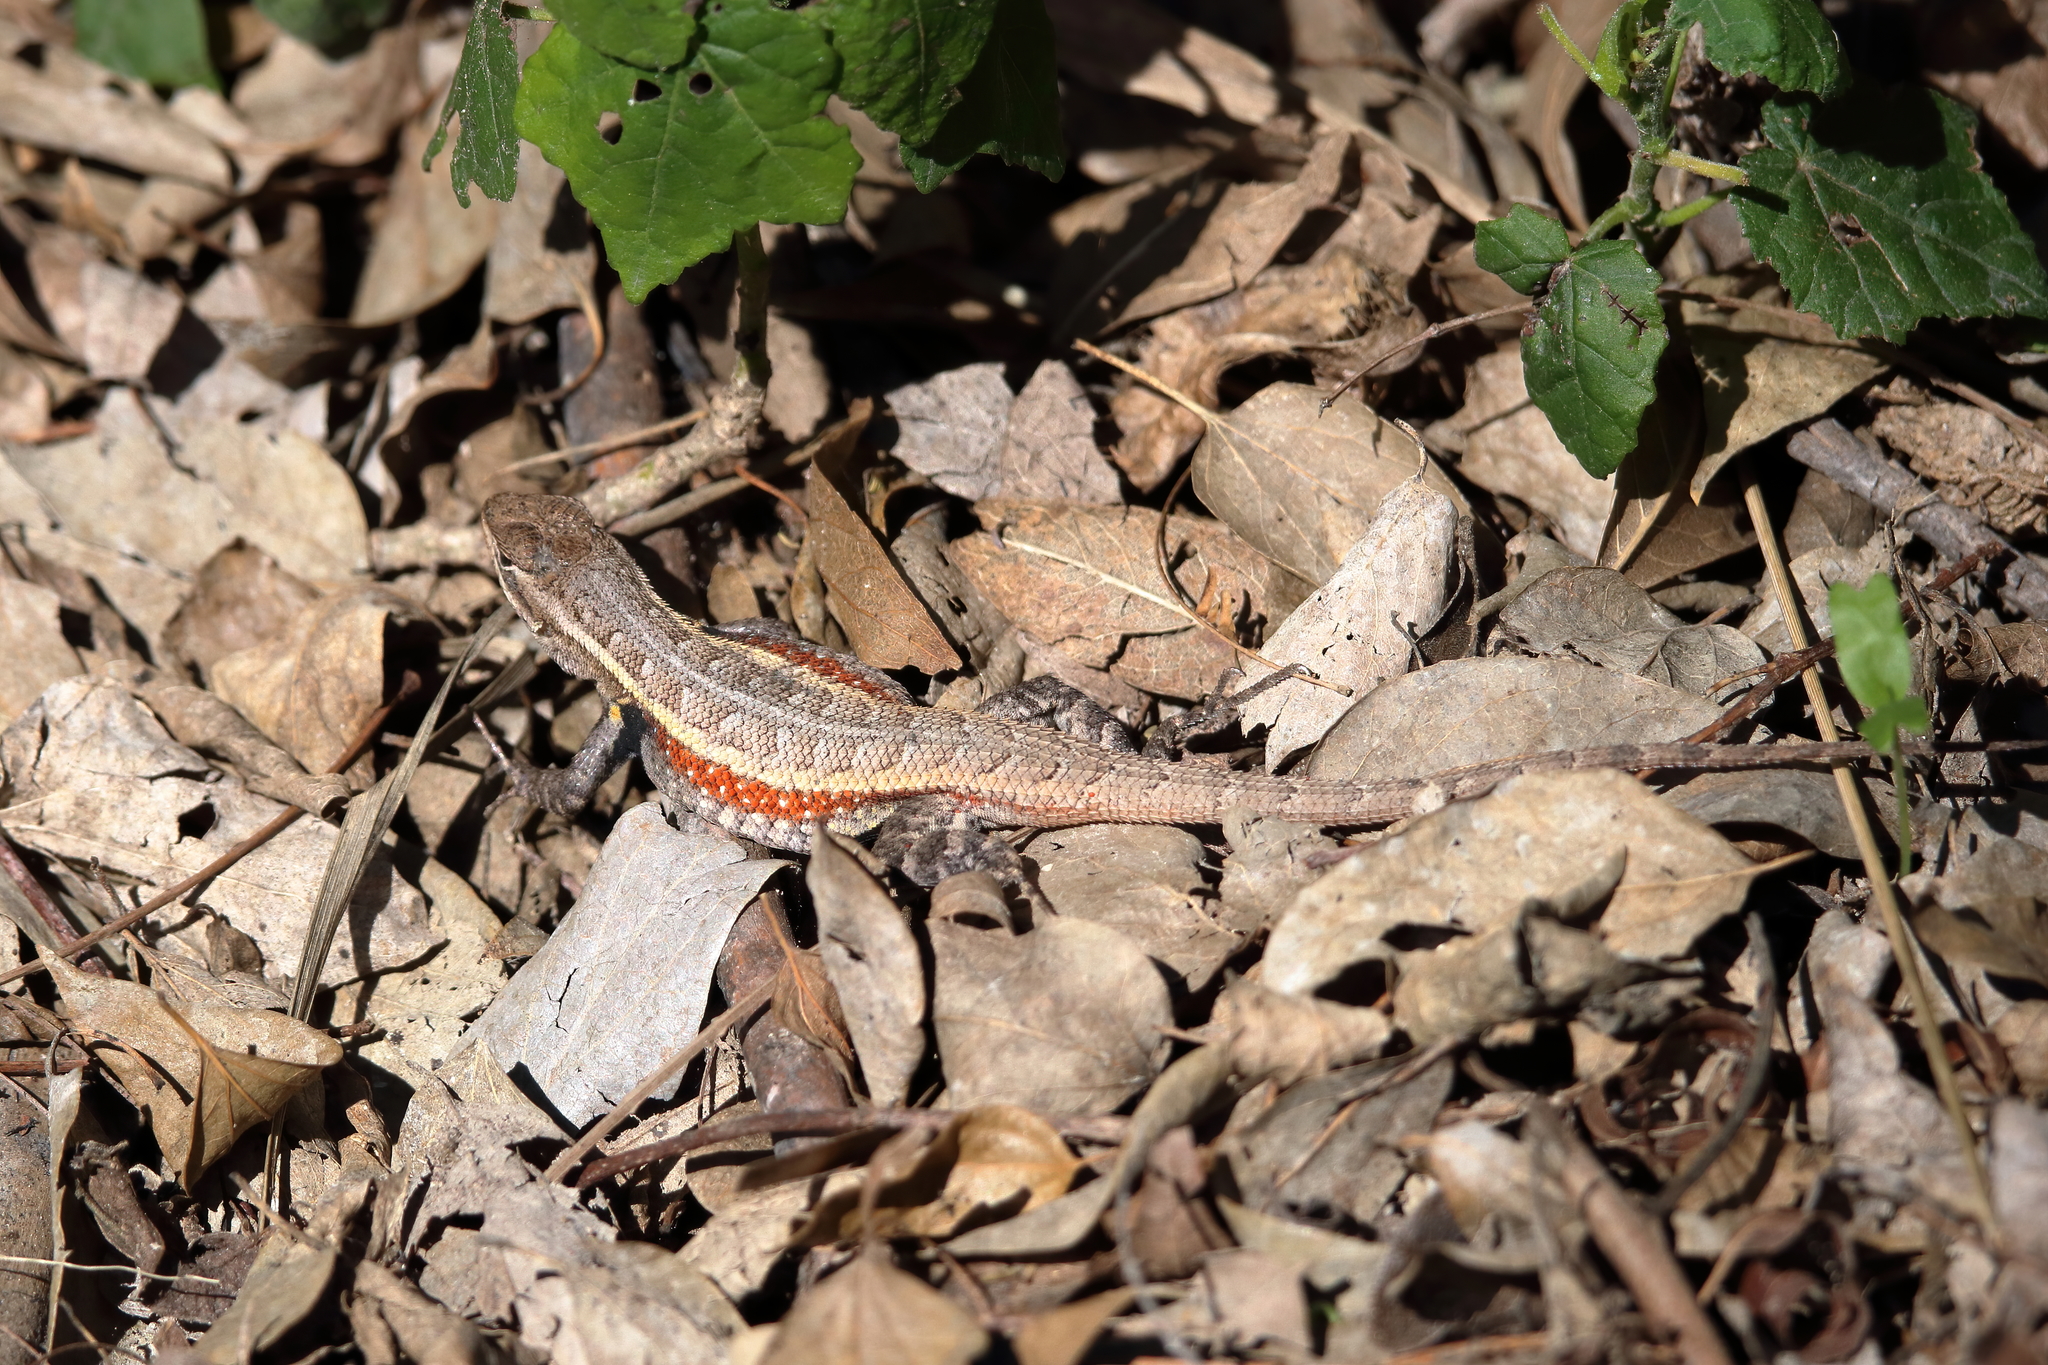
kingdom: Animalia
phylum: Chordata
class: Squamata
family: Phrynosomatidae
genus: Sceloporus
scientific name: Sceloporus variabilis
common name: Rosebelly lizard
